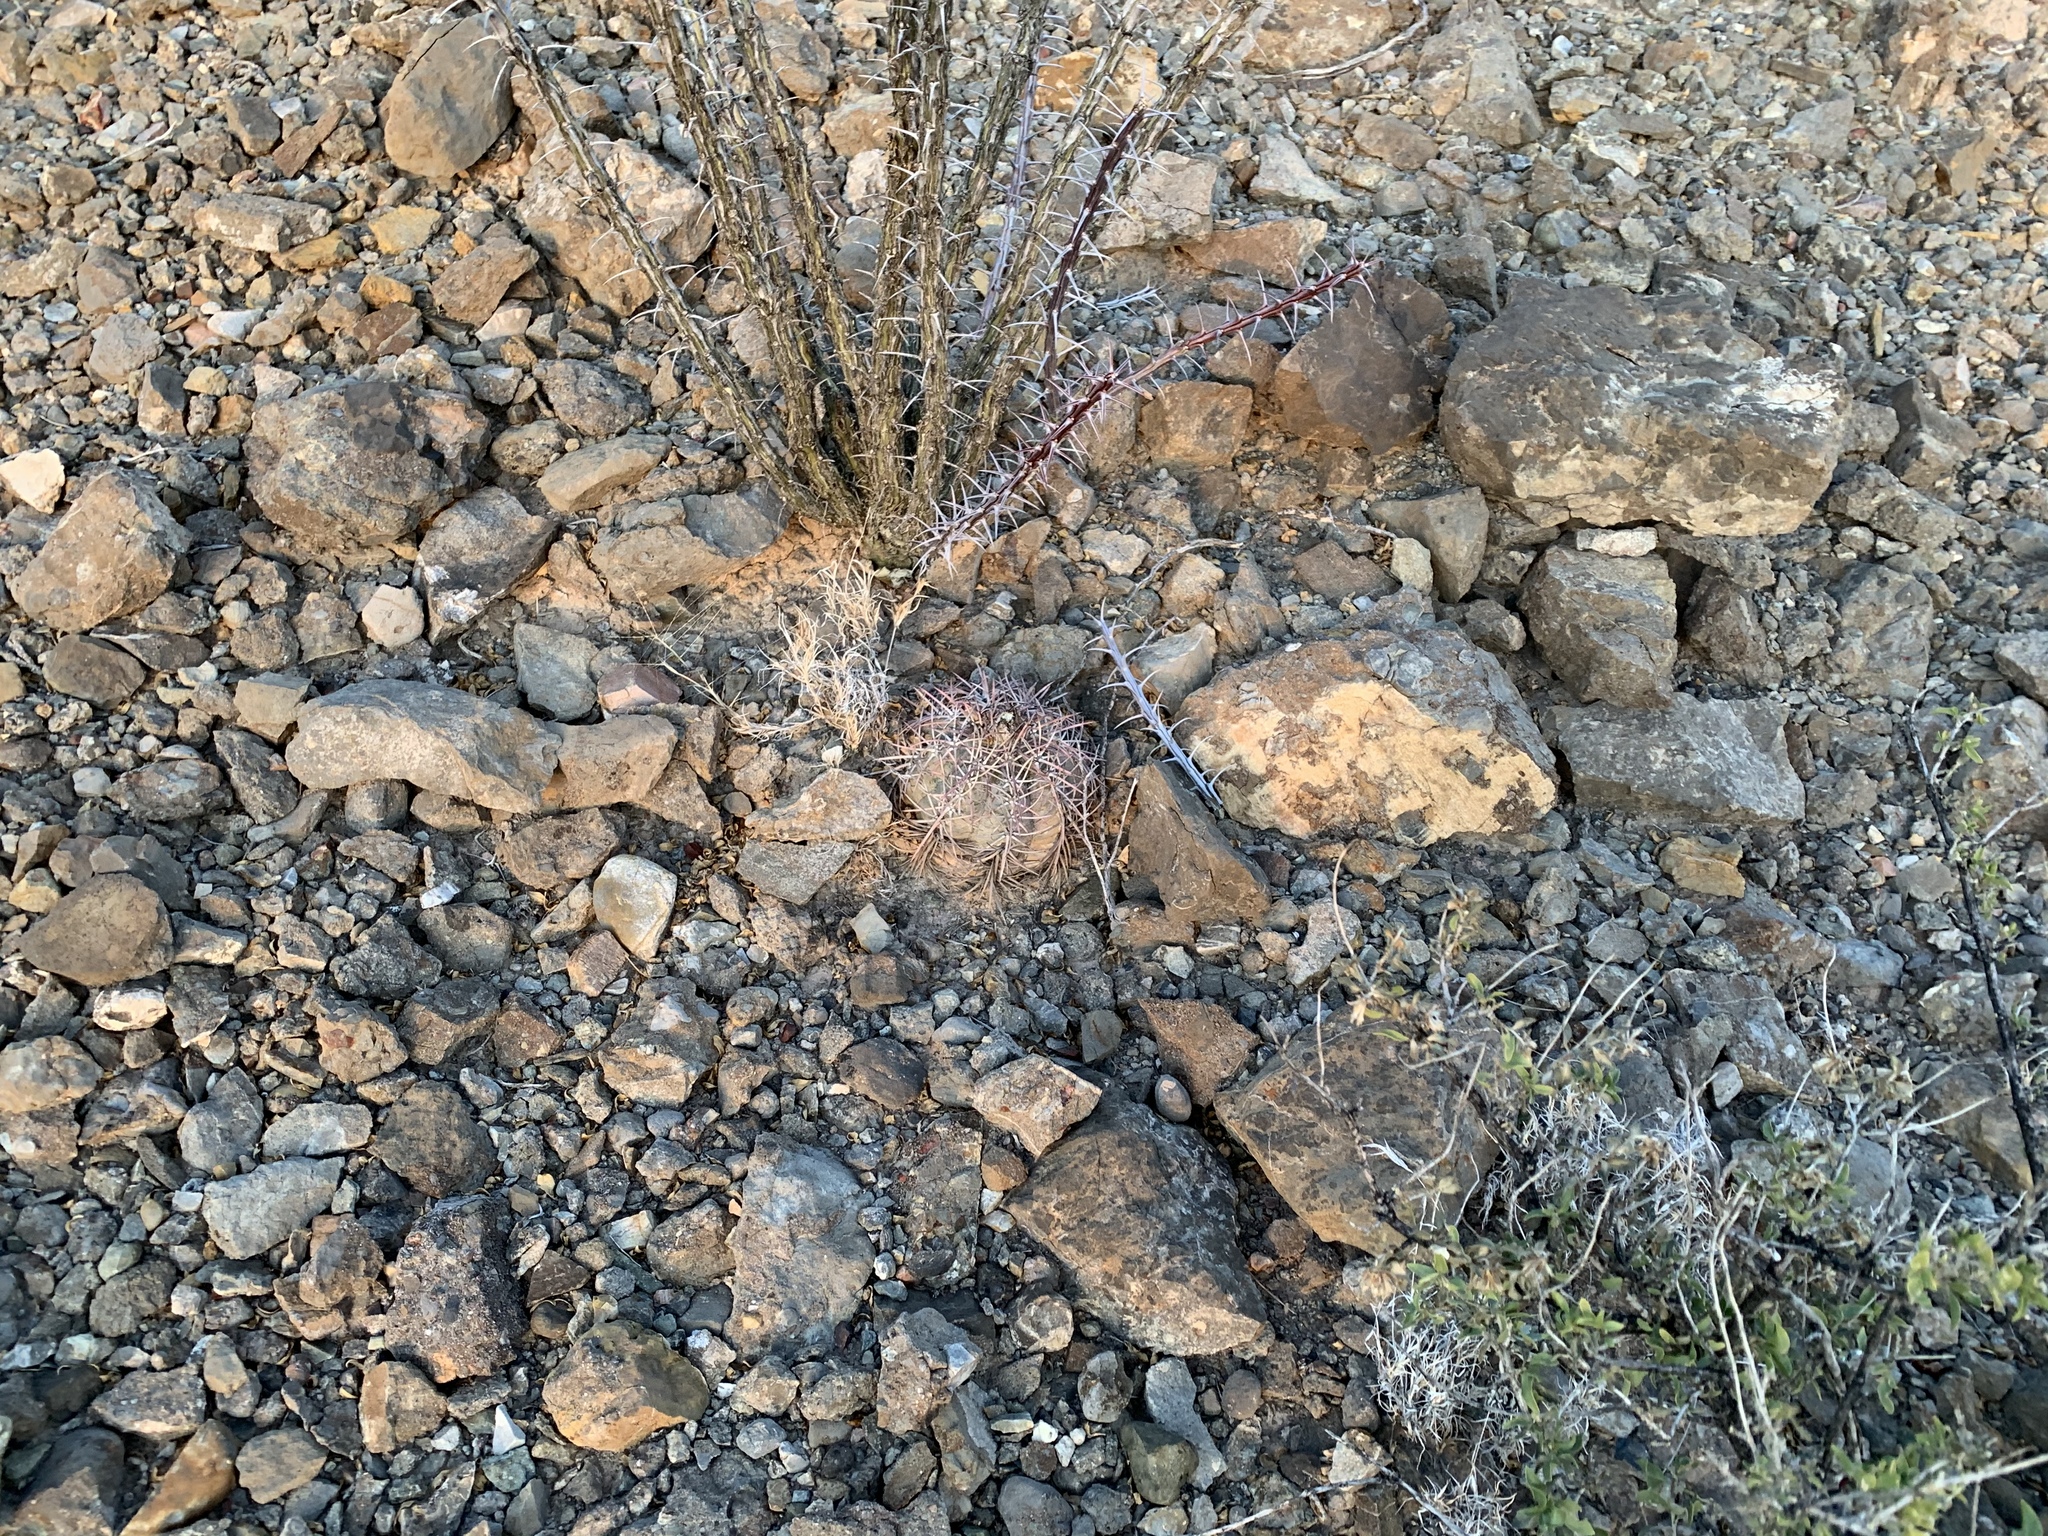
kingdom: Plantae
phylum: Tracheophyta
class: Magnoliopsida
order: Caryophyllales
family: Cactaceae
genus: Echinocactus
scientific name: Echinocactus horizonthalonius
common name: Devilshead
